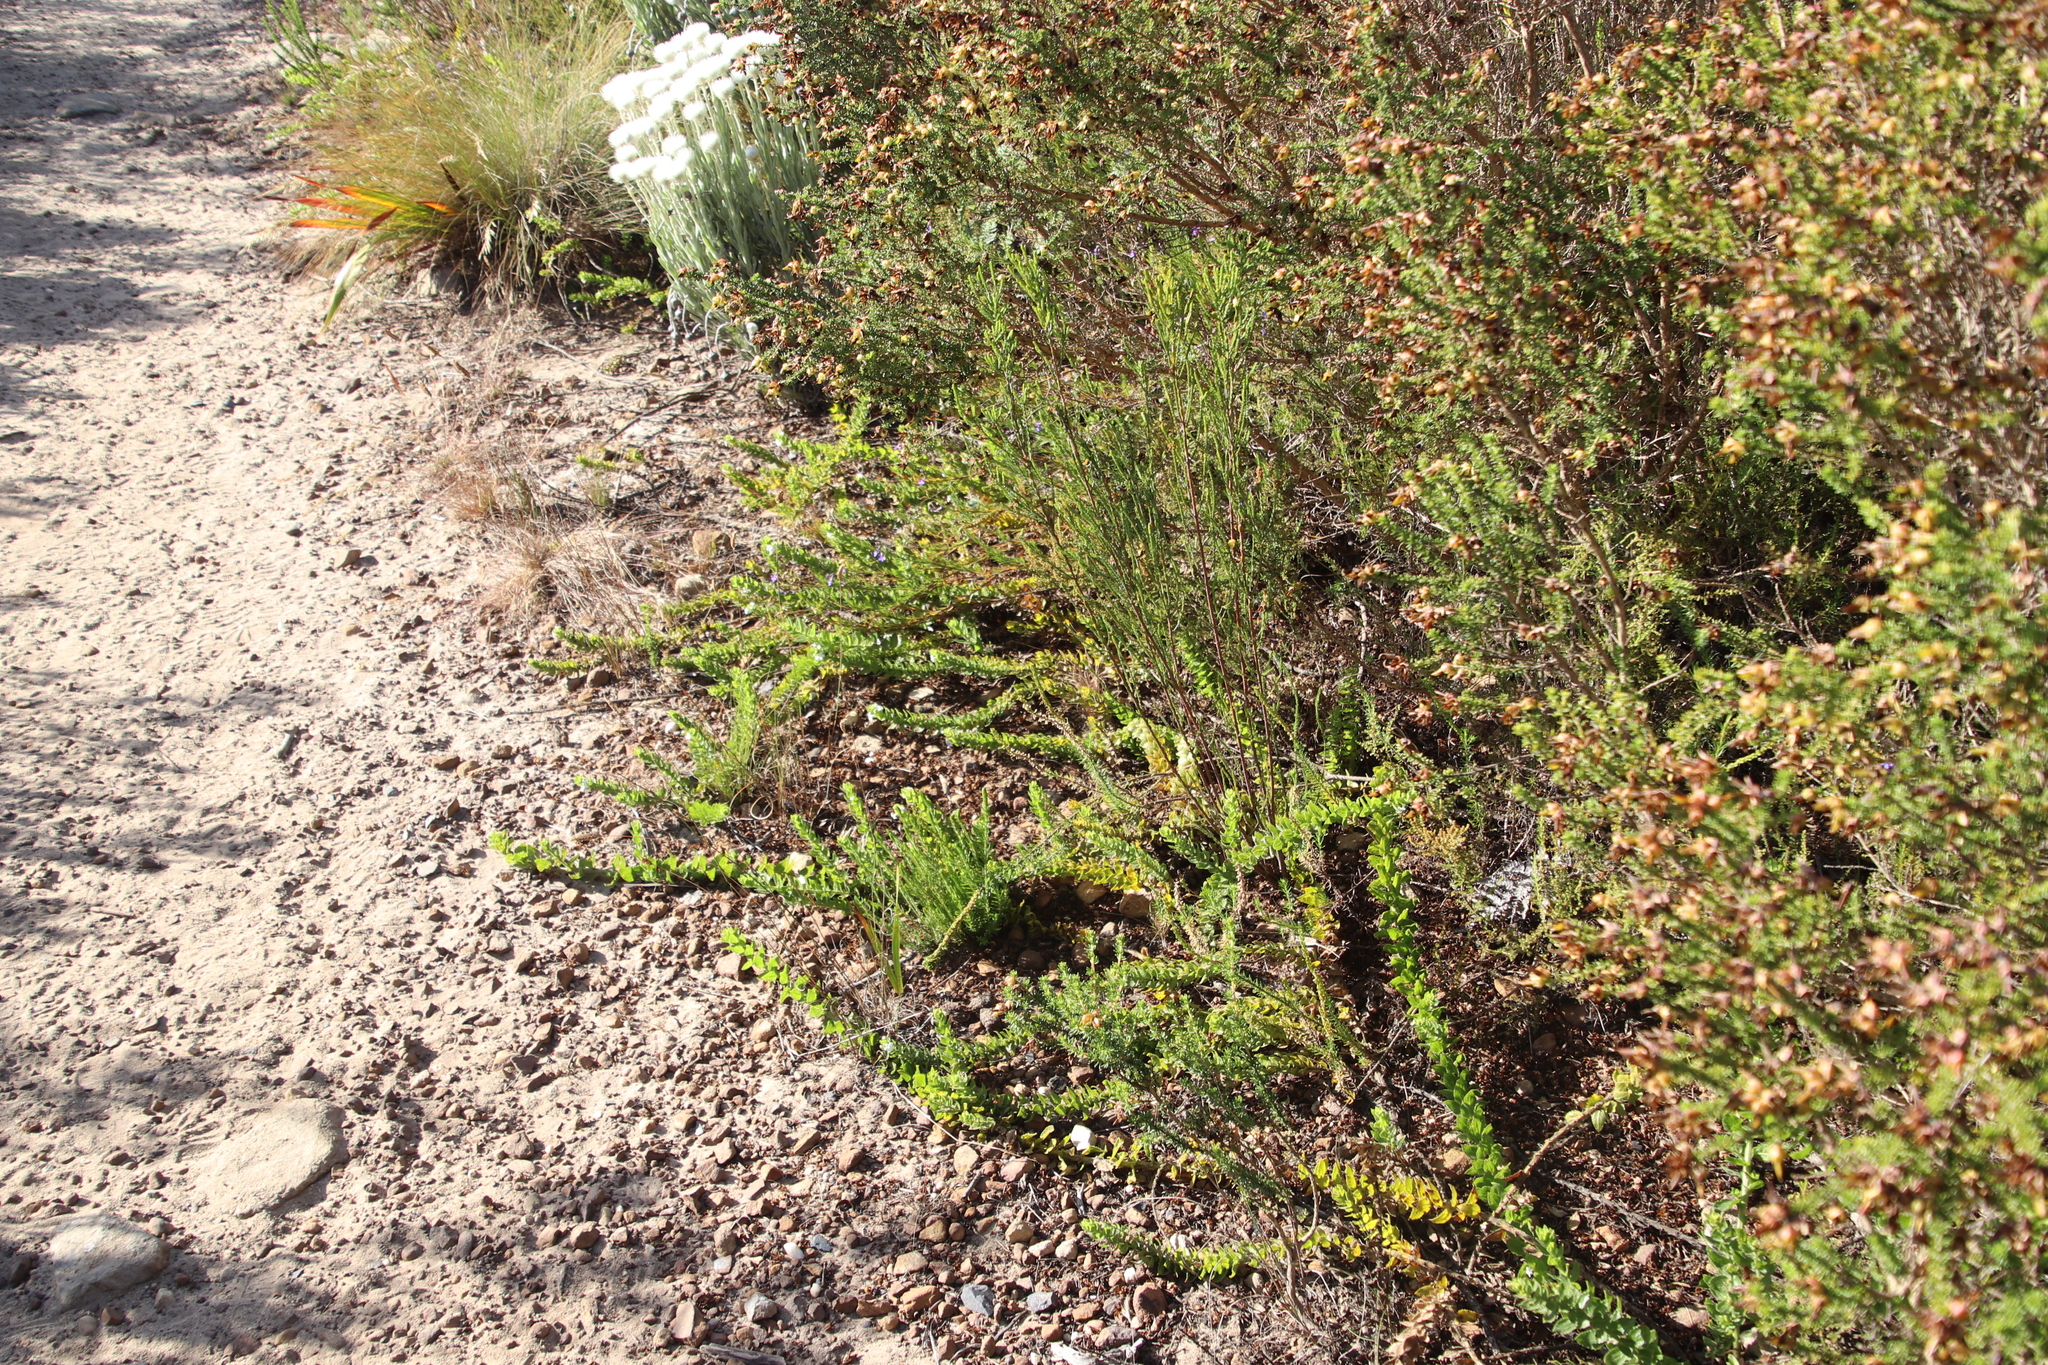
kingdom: Plantae
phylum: Tracheophyta
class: Magnoliopsida
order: Lamiales
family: Scrophulariaceae
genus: Oftia
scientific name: Oftia africana
